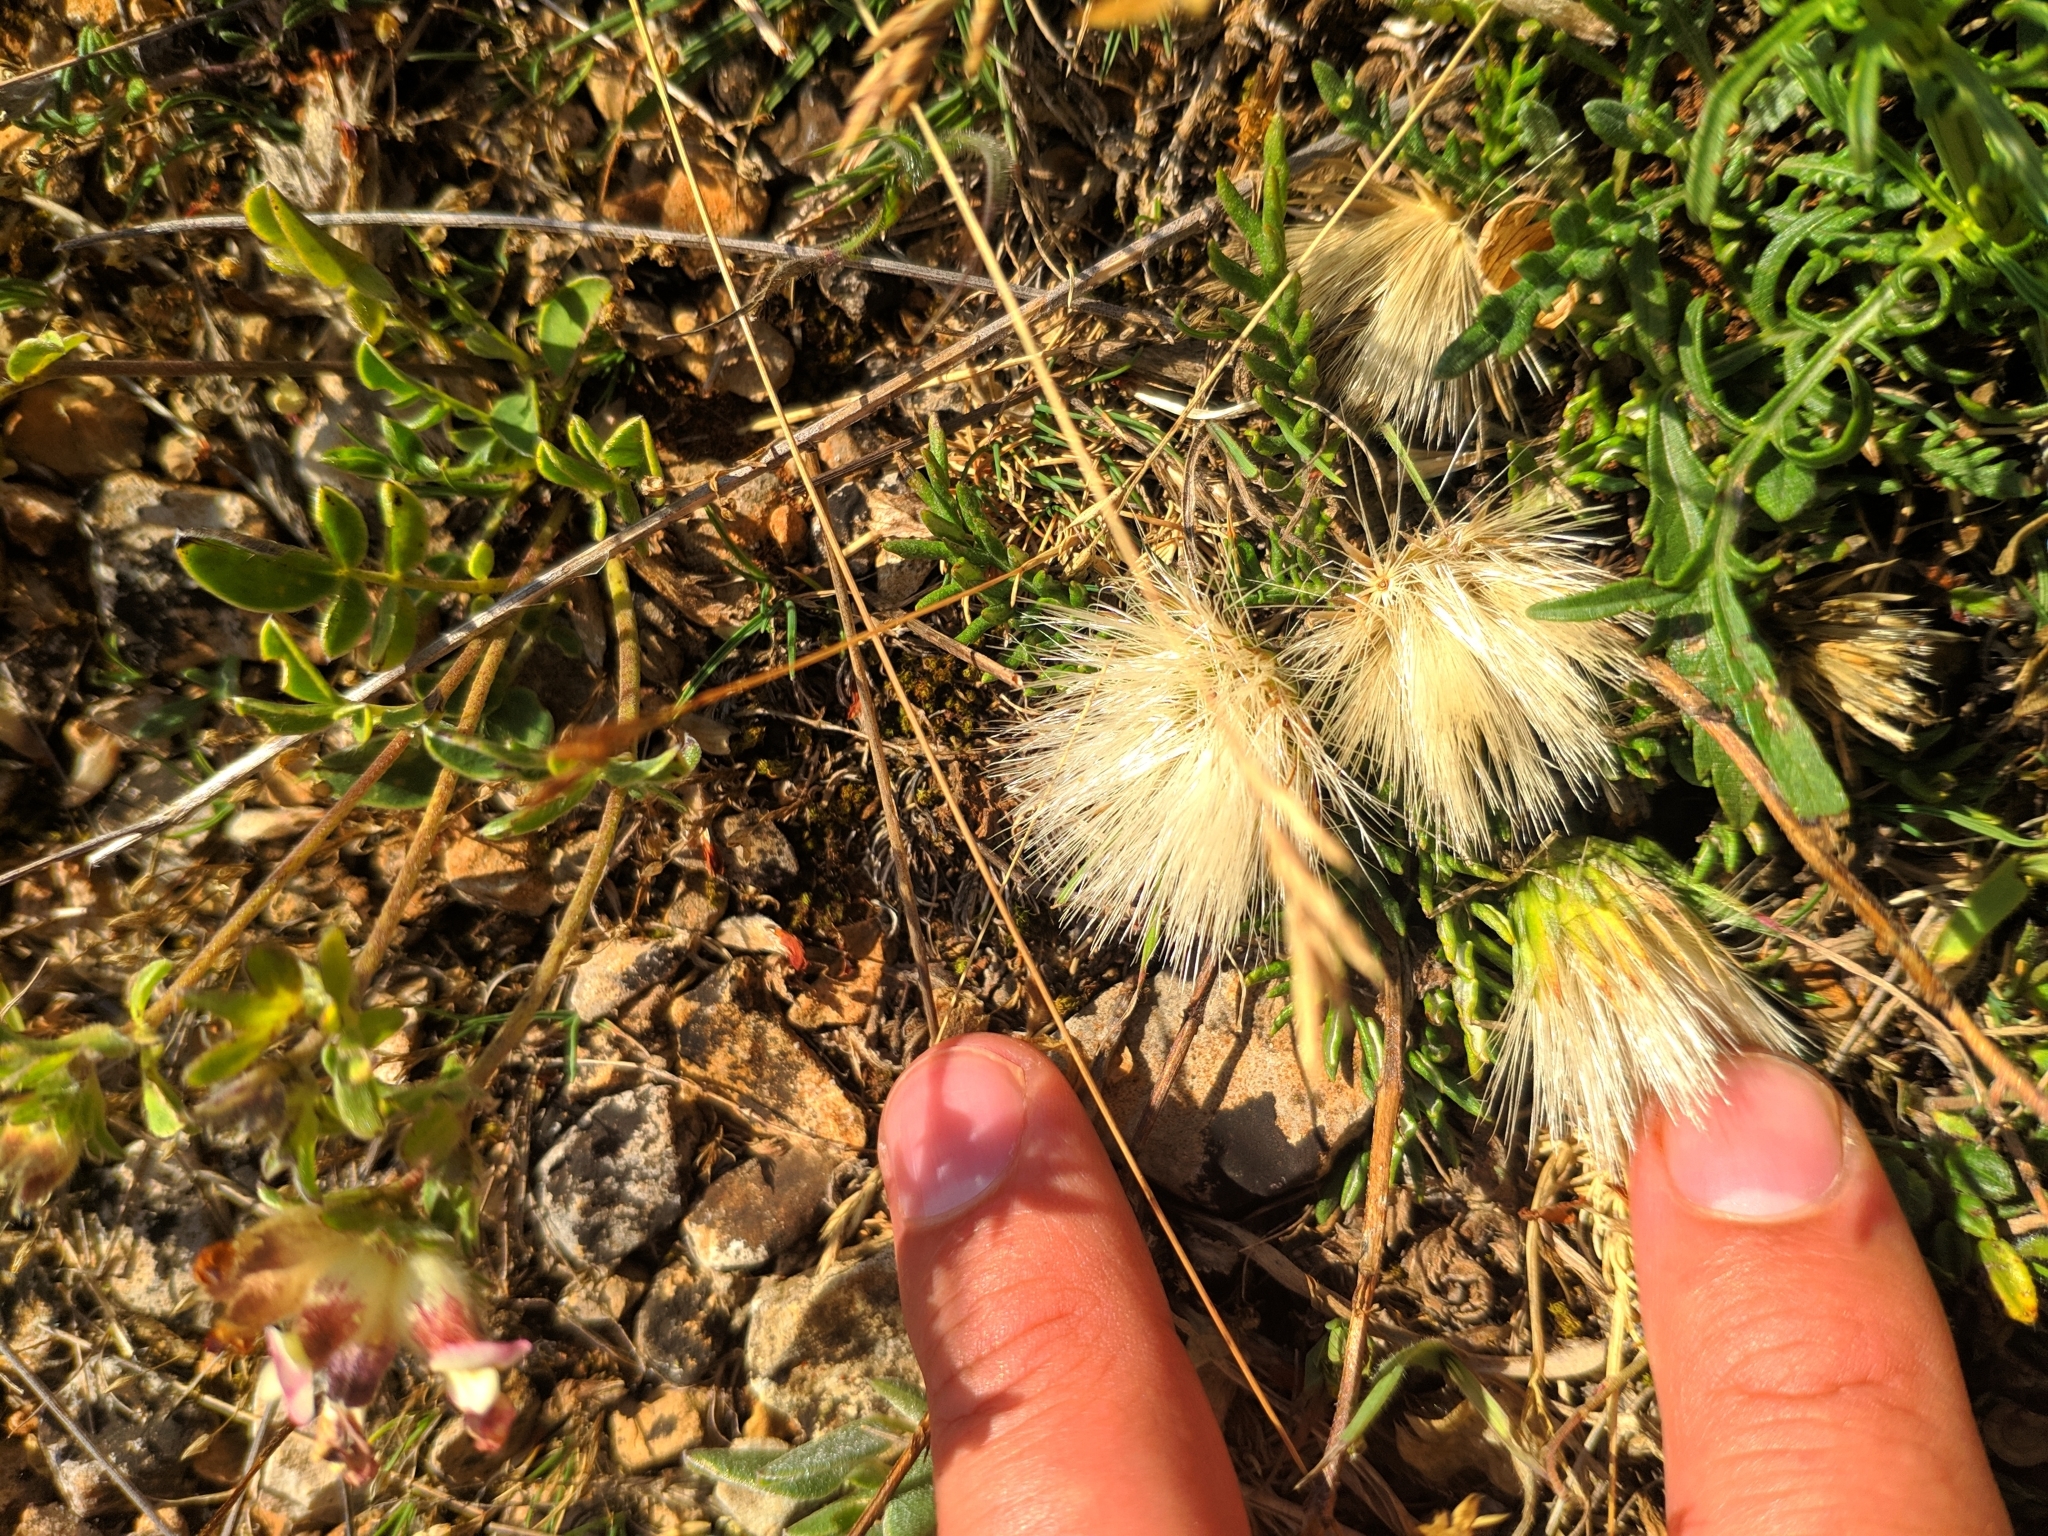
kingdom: Plantae
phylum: Tracheophyta
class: Magnoliopsida
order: Asterales
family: Asteraceae
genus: Jurinea
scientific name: Jurinea humilis
